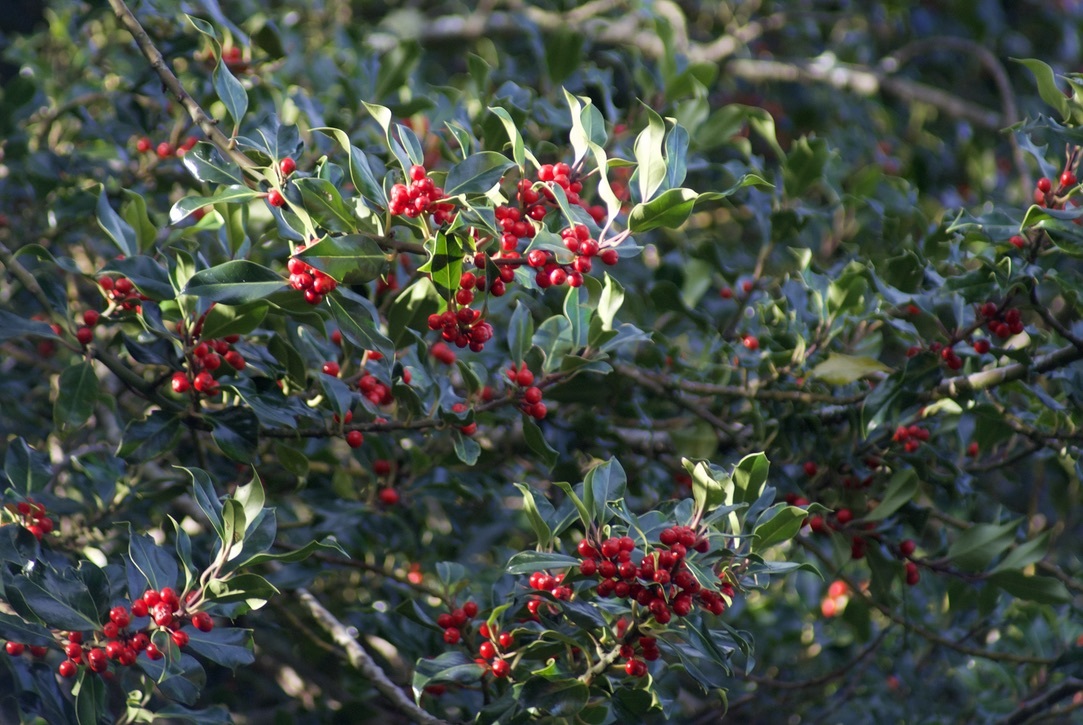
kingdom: Plantae
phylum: Tracheophyta
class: Magnoliopsida
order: Aquifoliales
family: Aquifoliaceae
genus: Ilex
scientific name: Ilex aquifolium
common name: English holly
